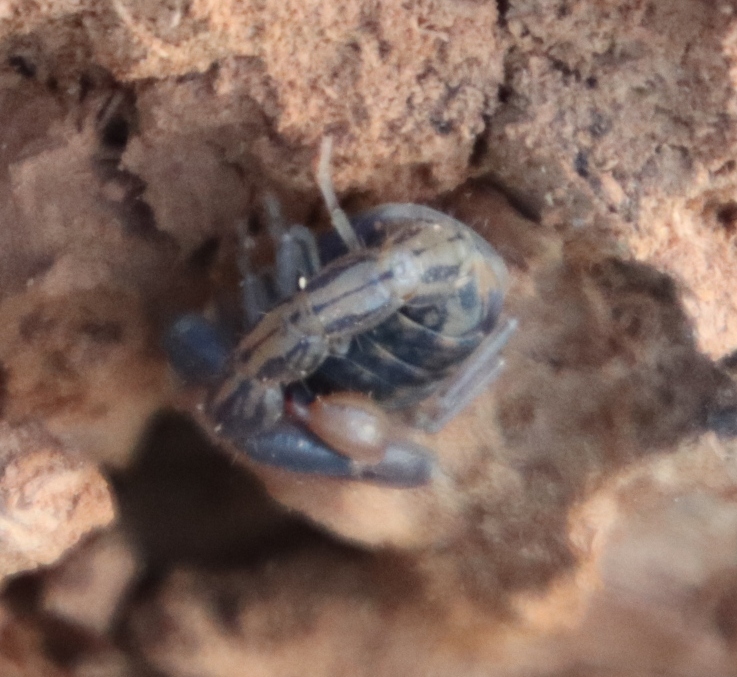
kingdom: Animalia
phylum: Arthropoda
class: Arachnida
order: Scorpiones
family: Buthidae
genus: Uroplectes
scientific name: Uroplectes lineatus
